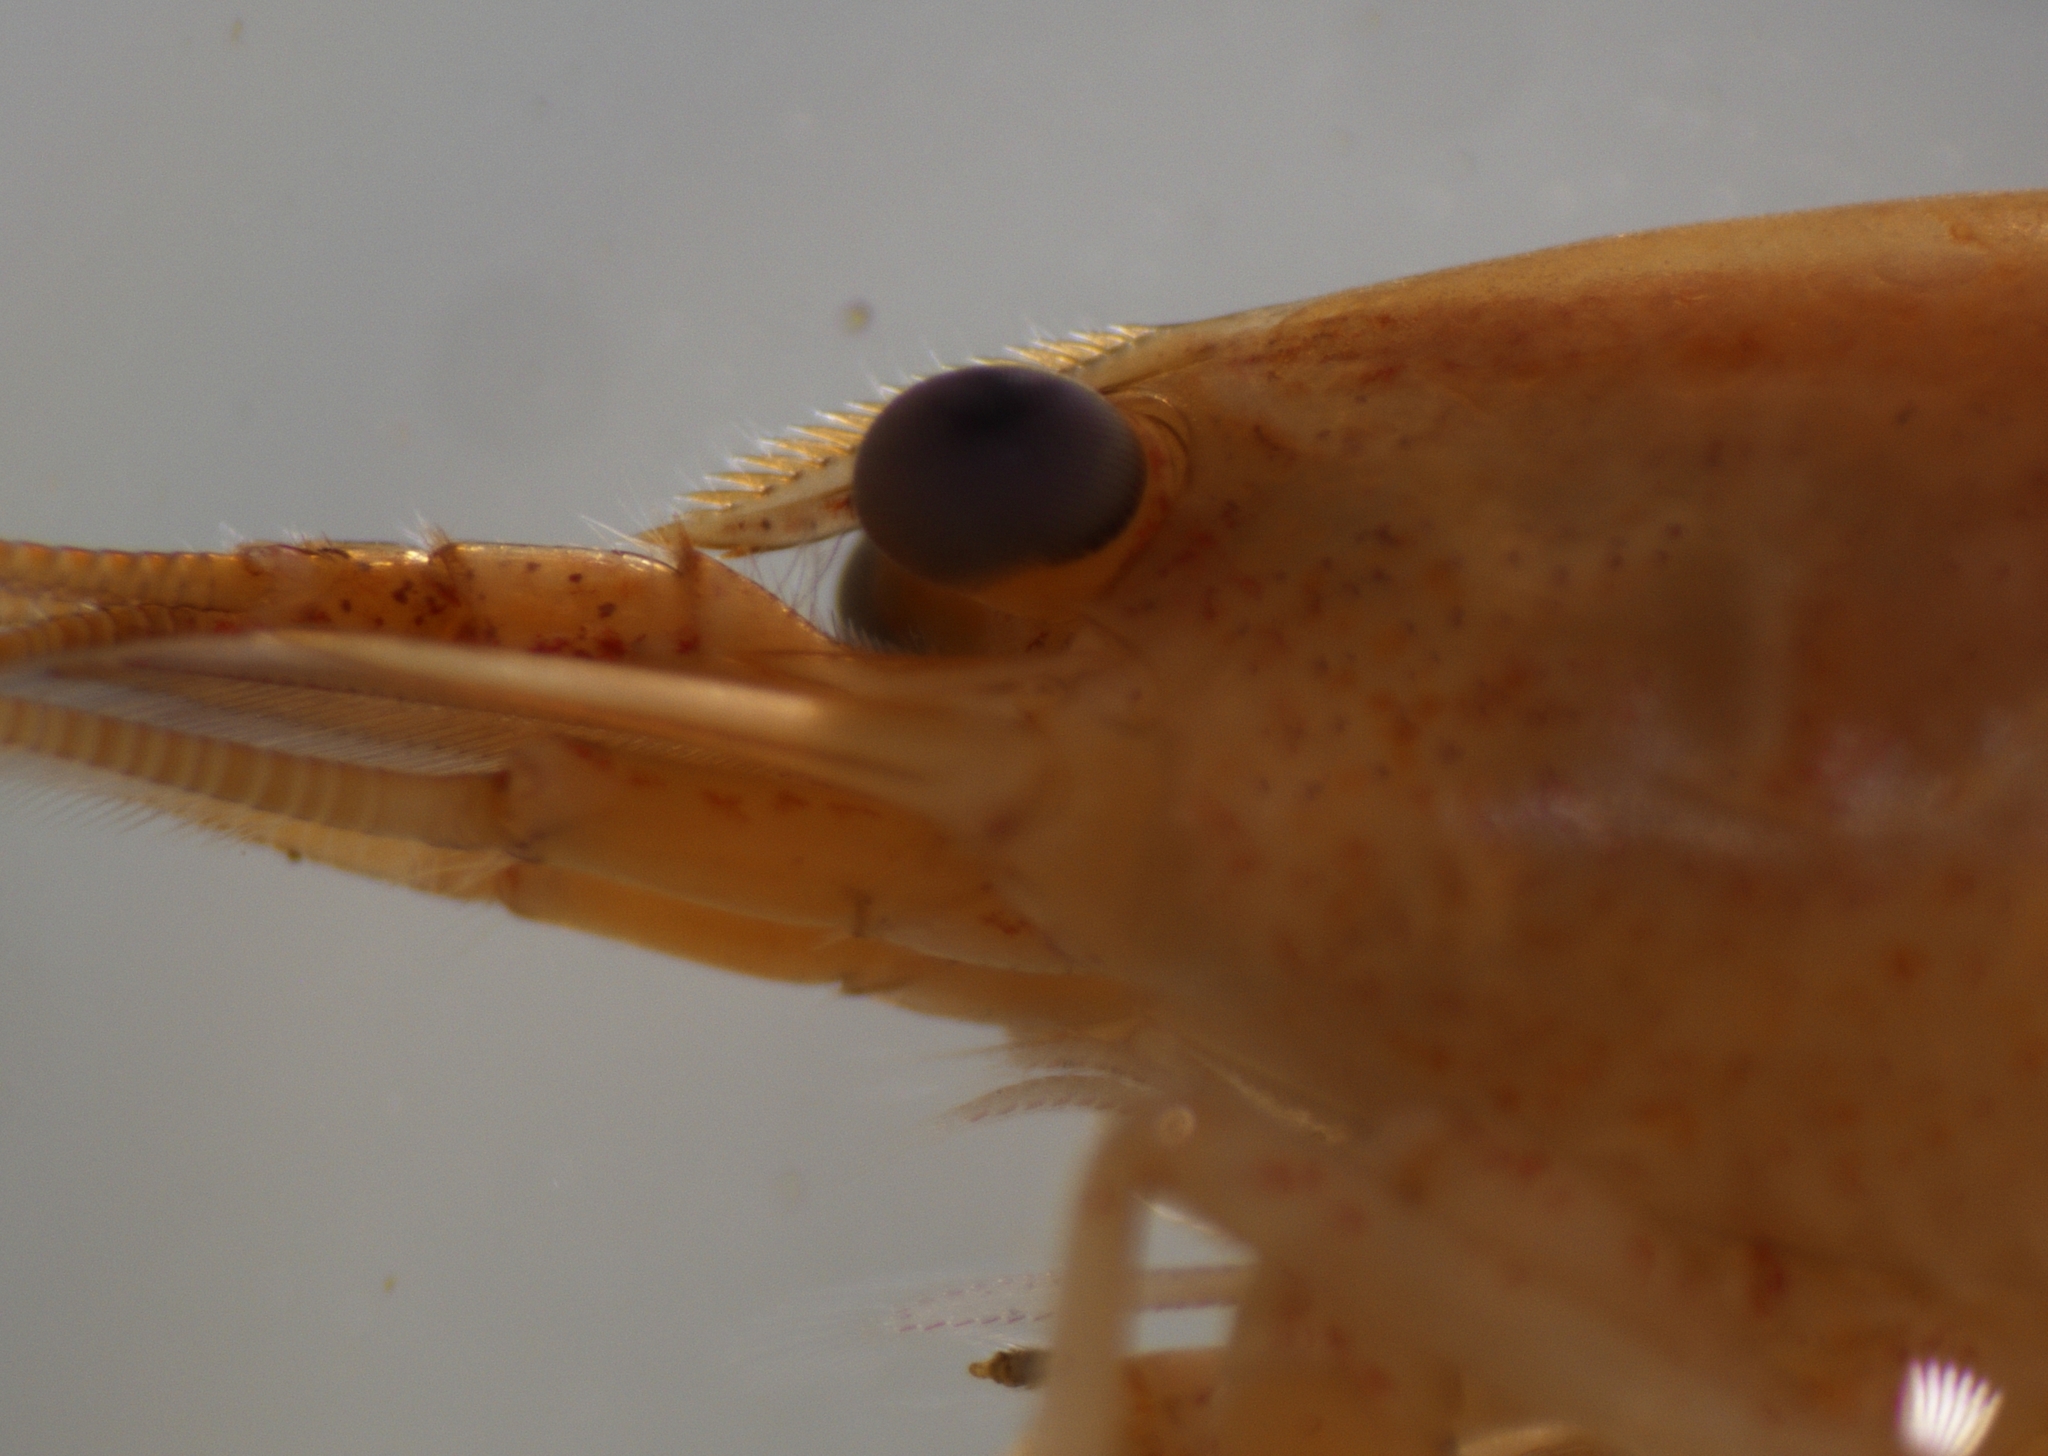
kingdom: Animalia
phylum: Arthropoda
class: Malacostraca
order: Decapoda
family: Atyidae
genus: Caridina
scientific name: Caridina tupaia
